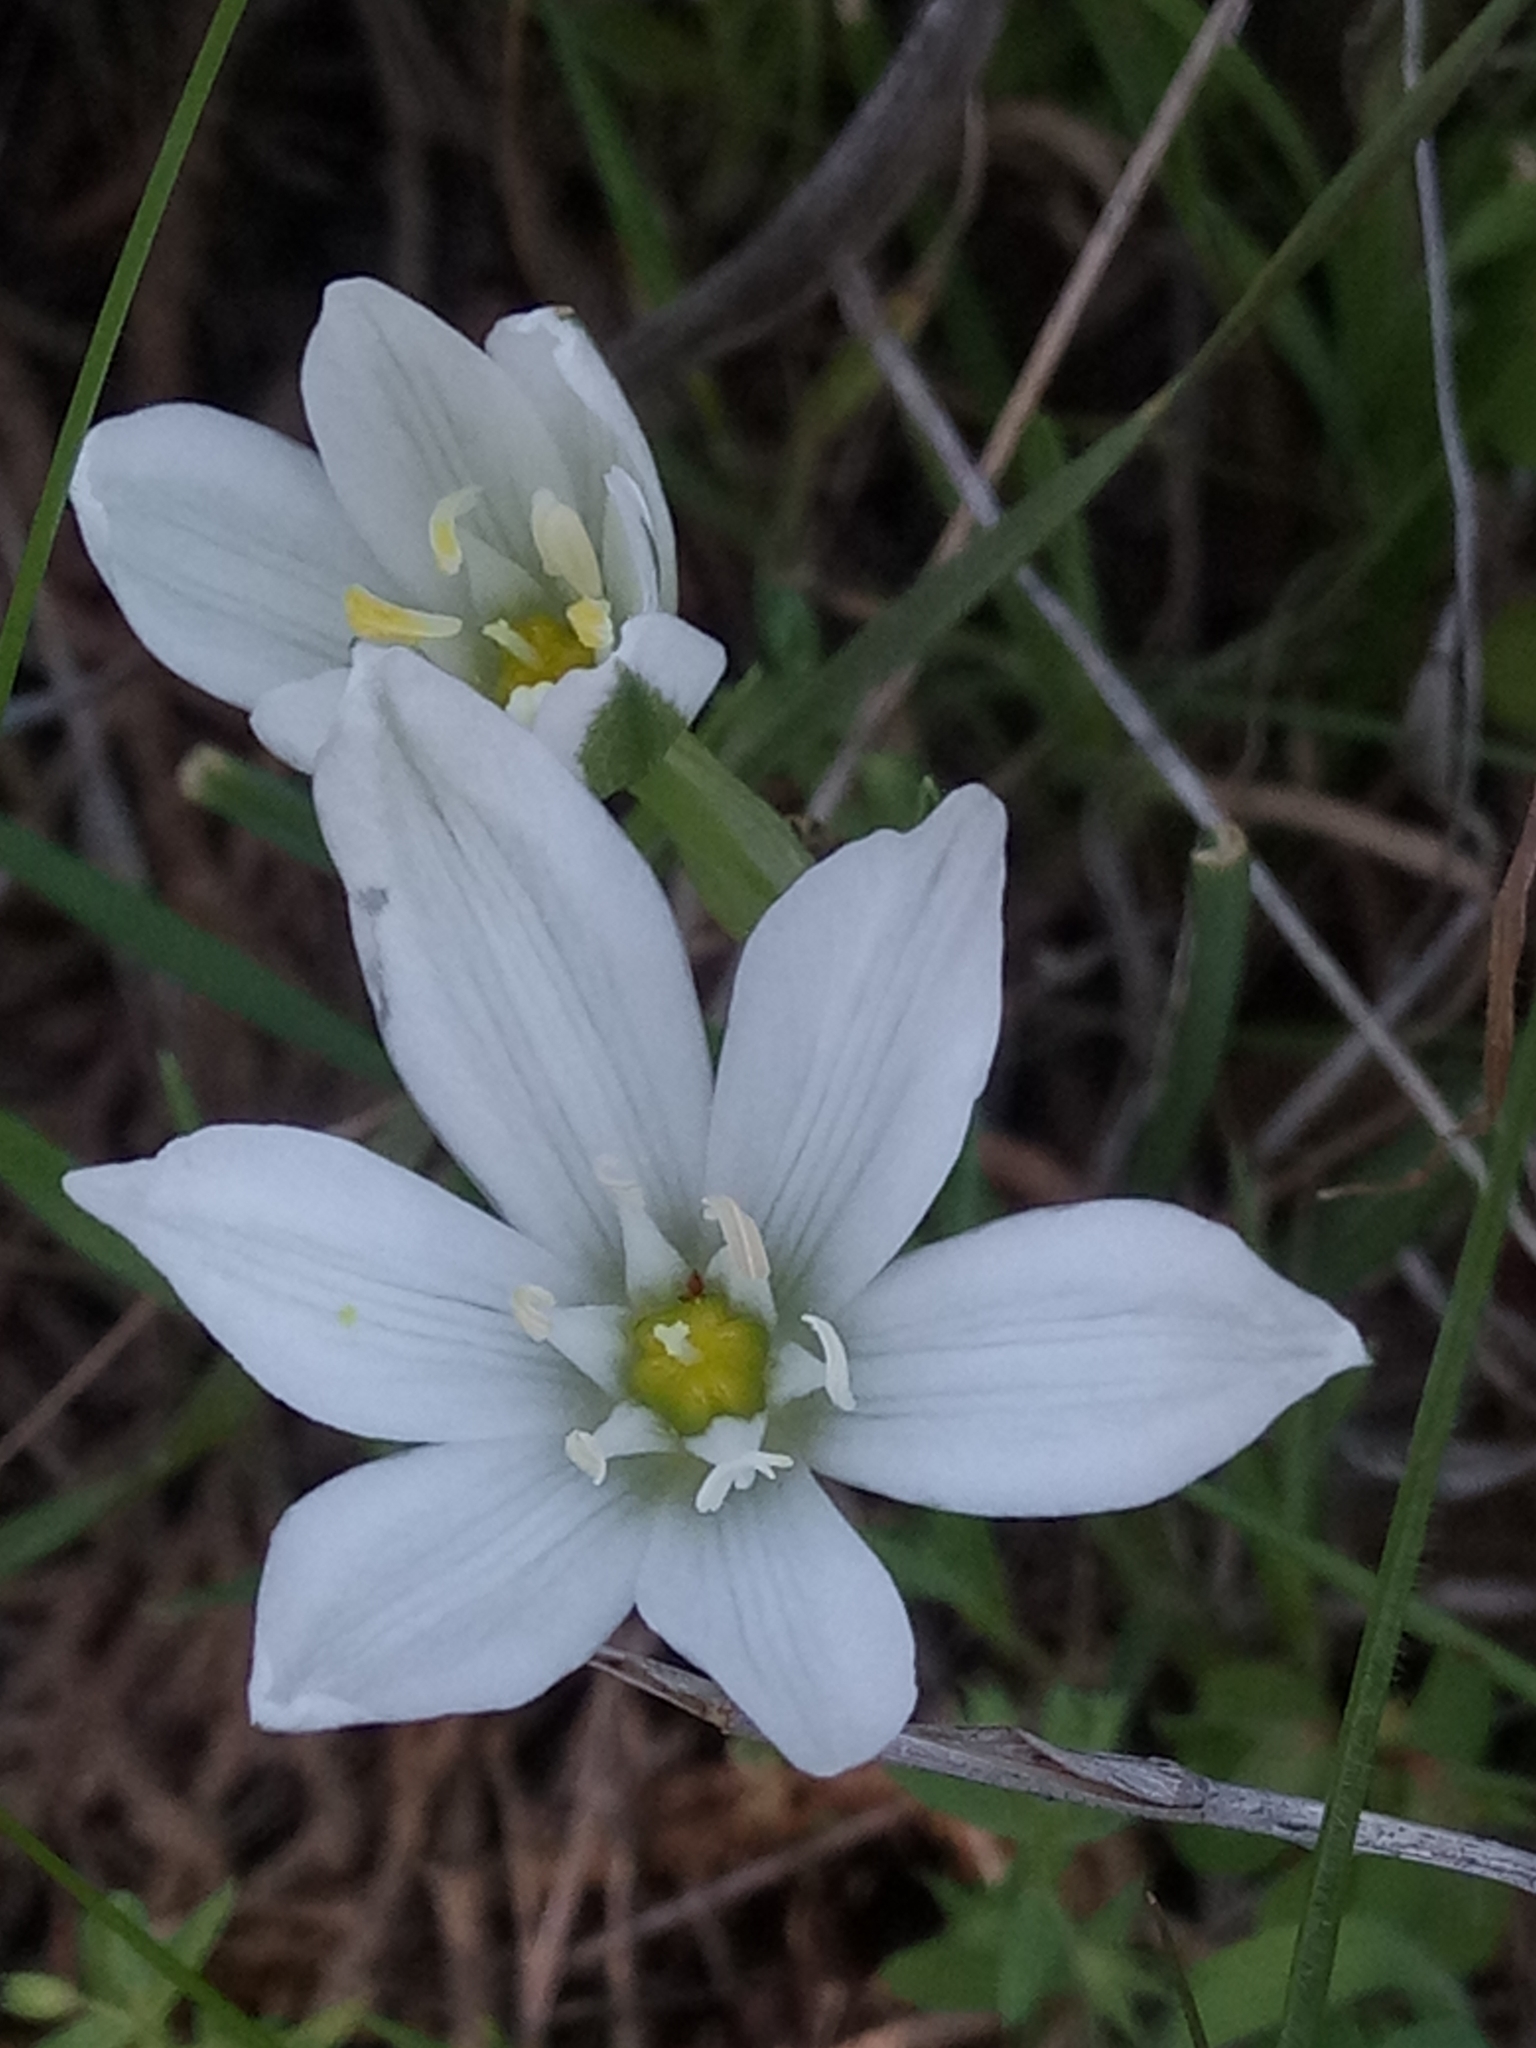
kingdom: Plantae
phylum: Tracheophyta
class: Liliopsida
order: Asparagales
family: Asparagaceae
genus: Ornithogalum
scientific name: Ornithogalum baeticum
